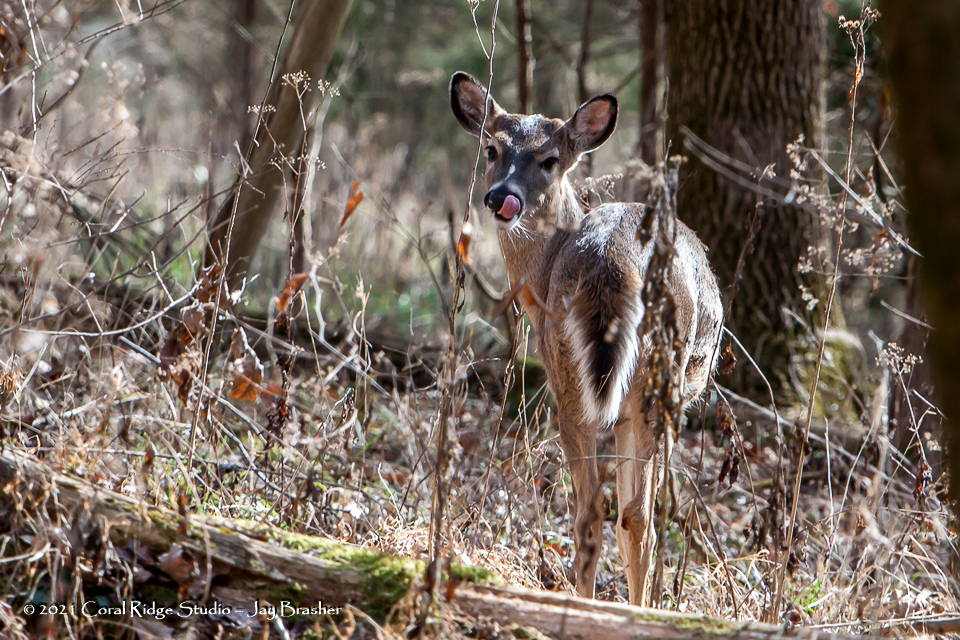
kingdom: Animalia
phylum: Chordata
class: Mammalia
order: Artiodactyla
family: Cervidae
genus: Odocoileus
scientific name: Odocoileus virginianus
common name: White-tailed deer
